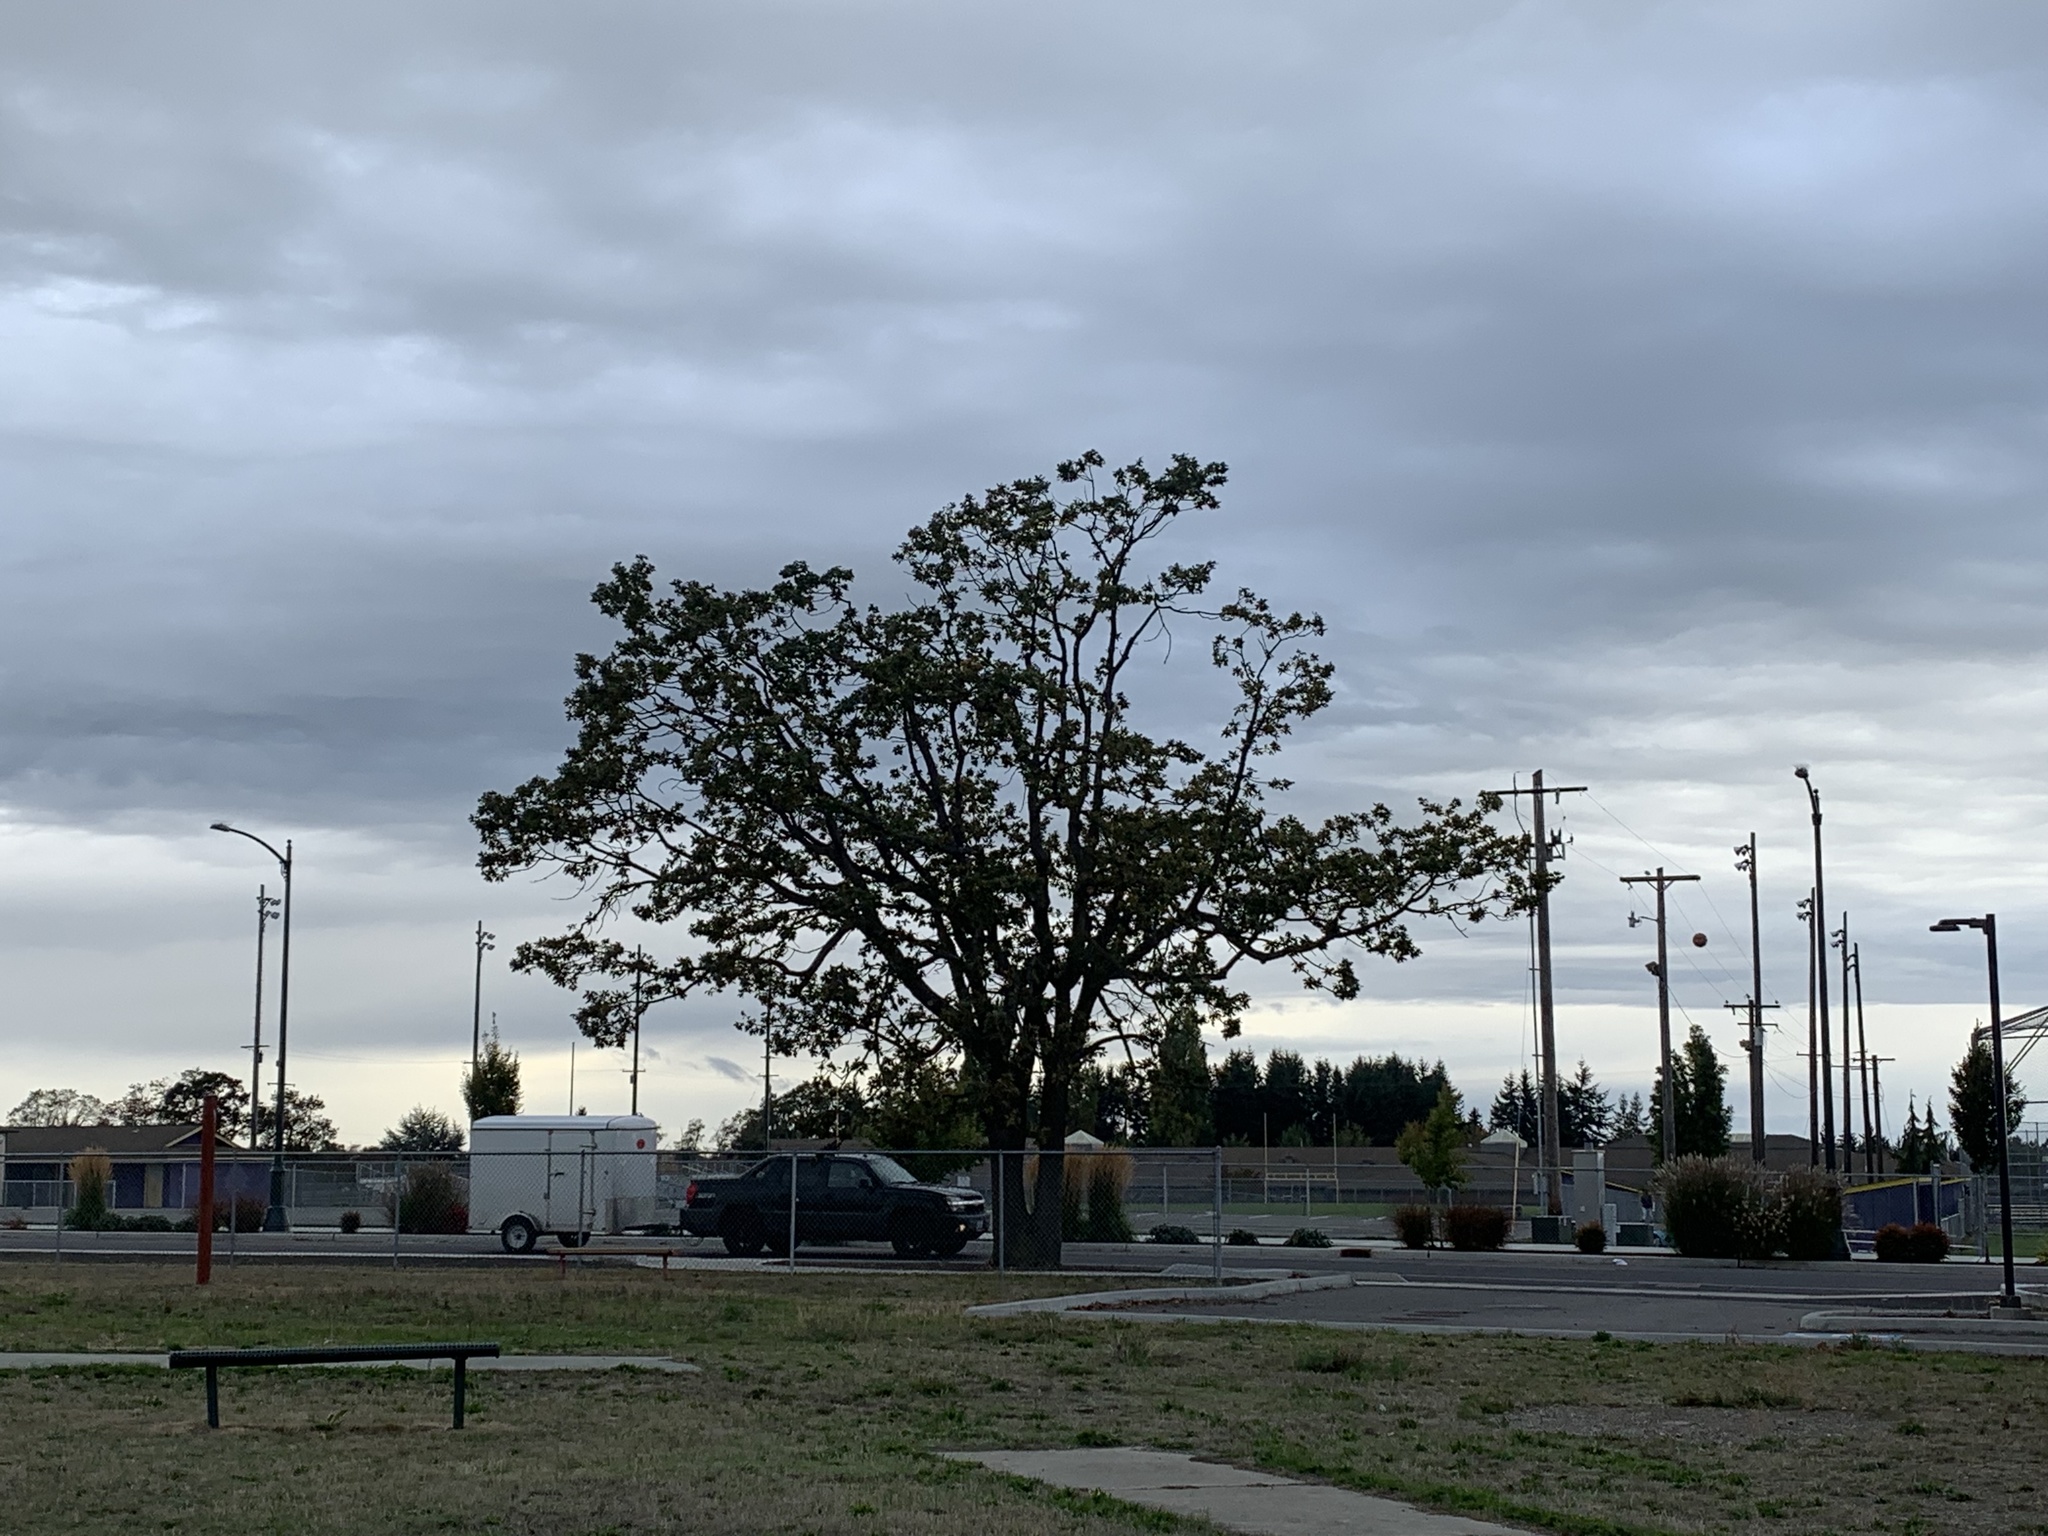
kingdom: Plantae
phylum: Tracheophyta
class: Magnoliopsida
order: Fagales
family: Fagaceae
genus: Quercus
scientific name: Quercus garryana
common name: Garry oak
